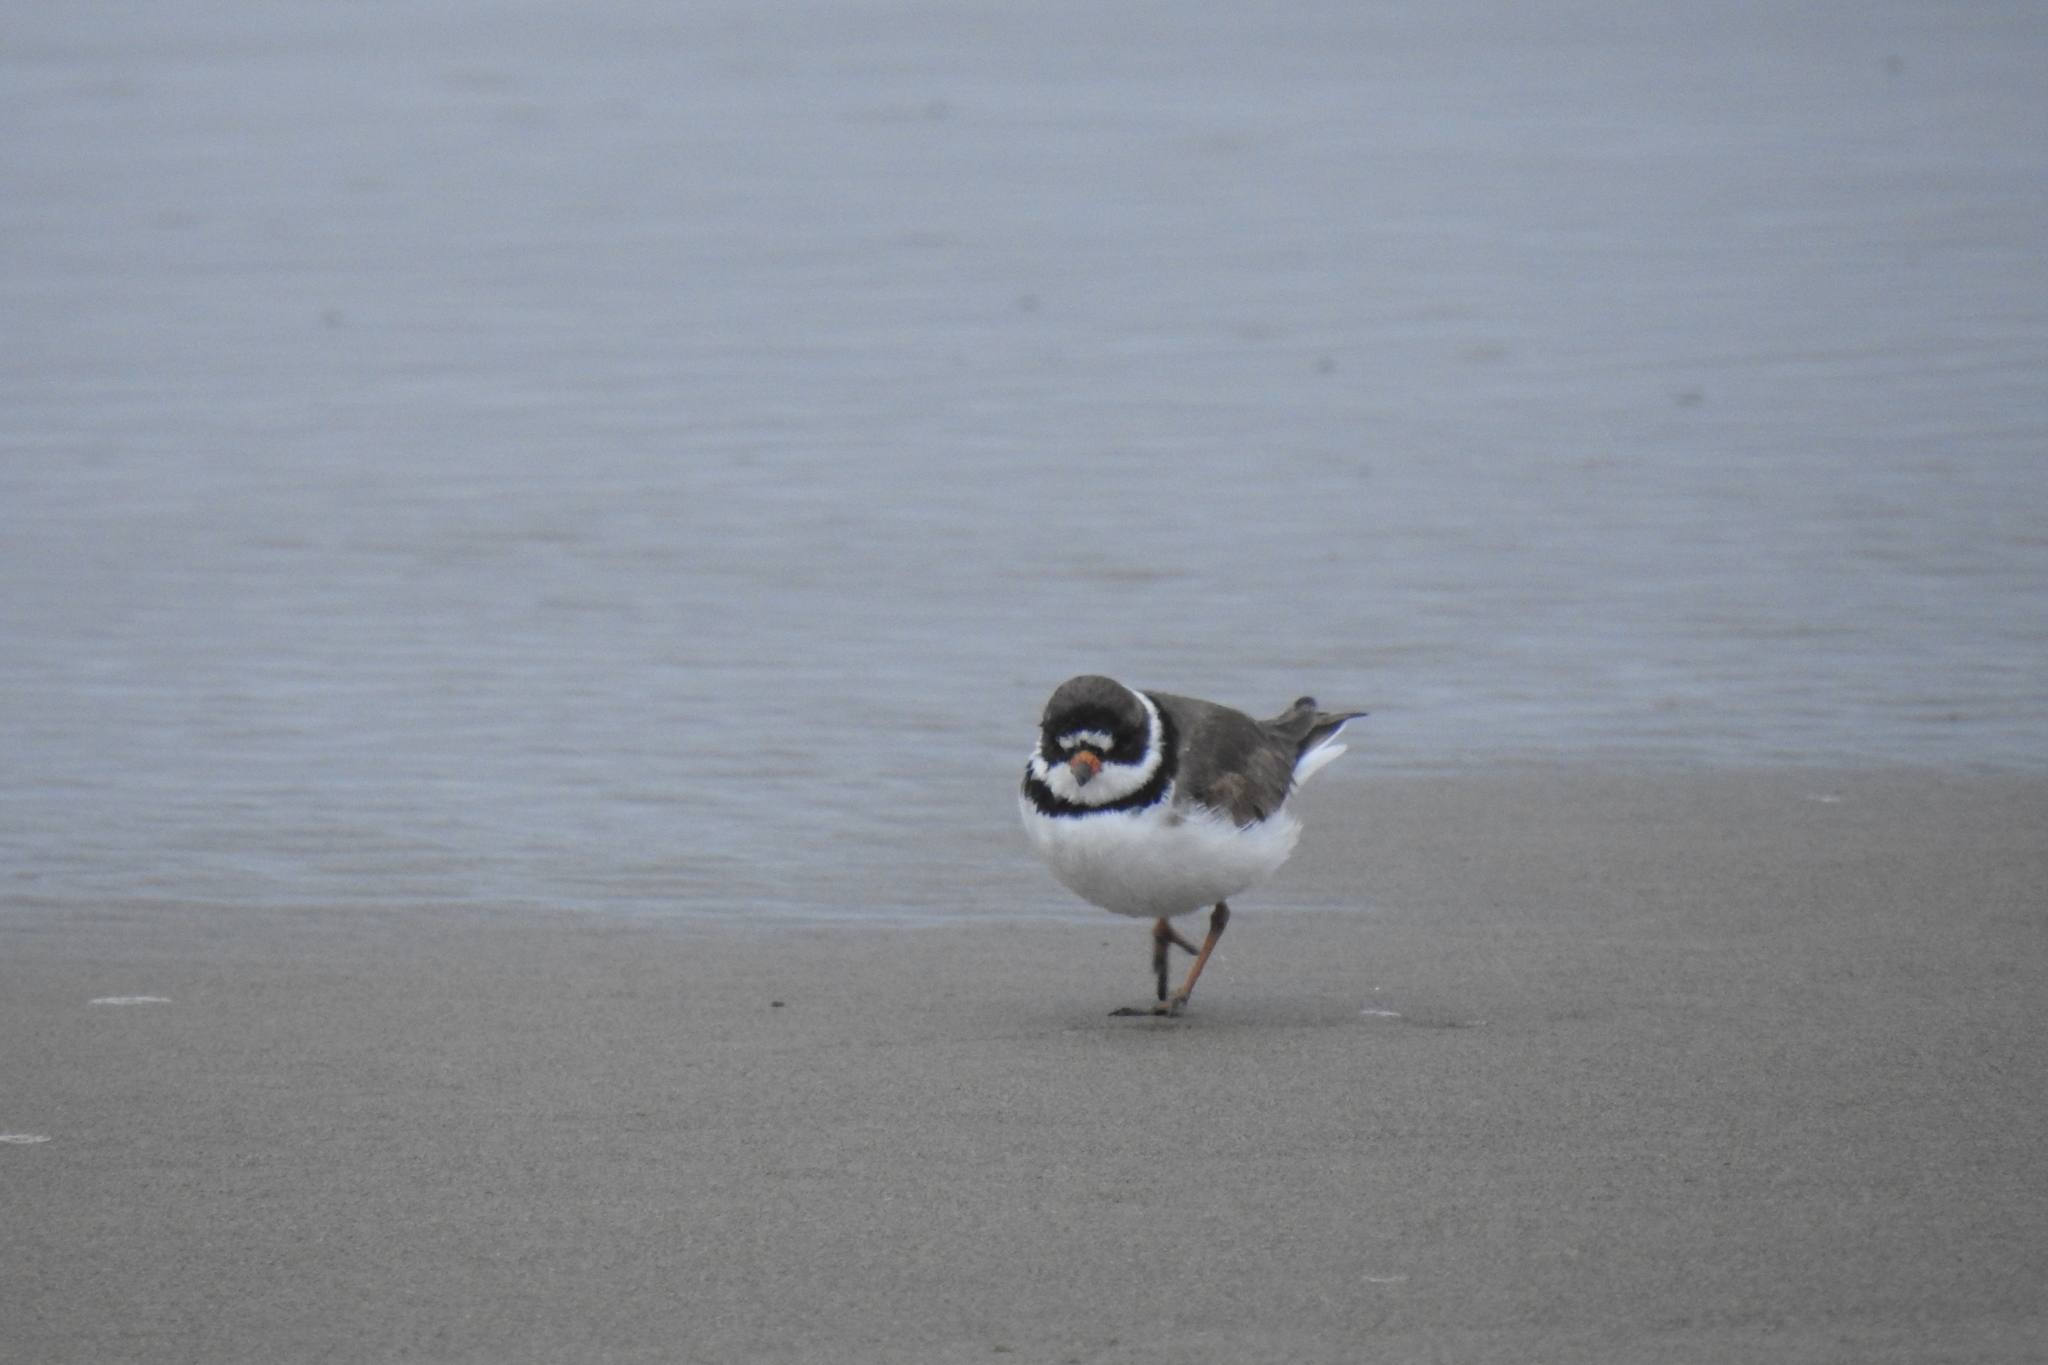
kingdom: Animalia
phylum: Chordata
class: Aves
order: Charadriiformes
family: Charadriidae
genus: Charadrius
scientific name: Charadrius semipalmatus
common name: Semipalmated plover
